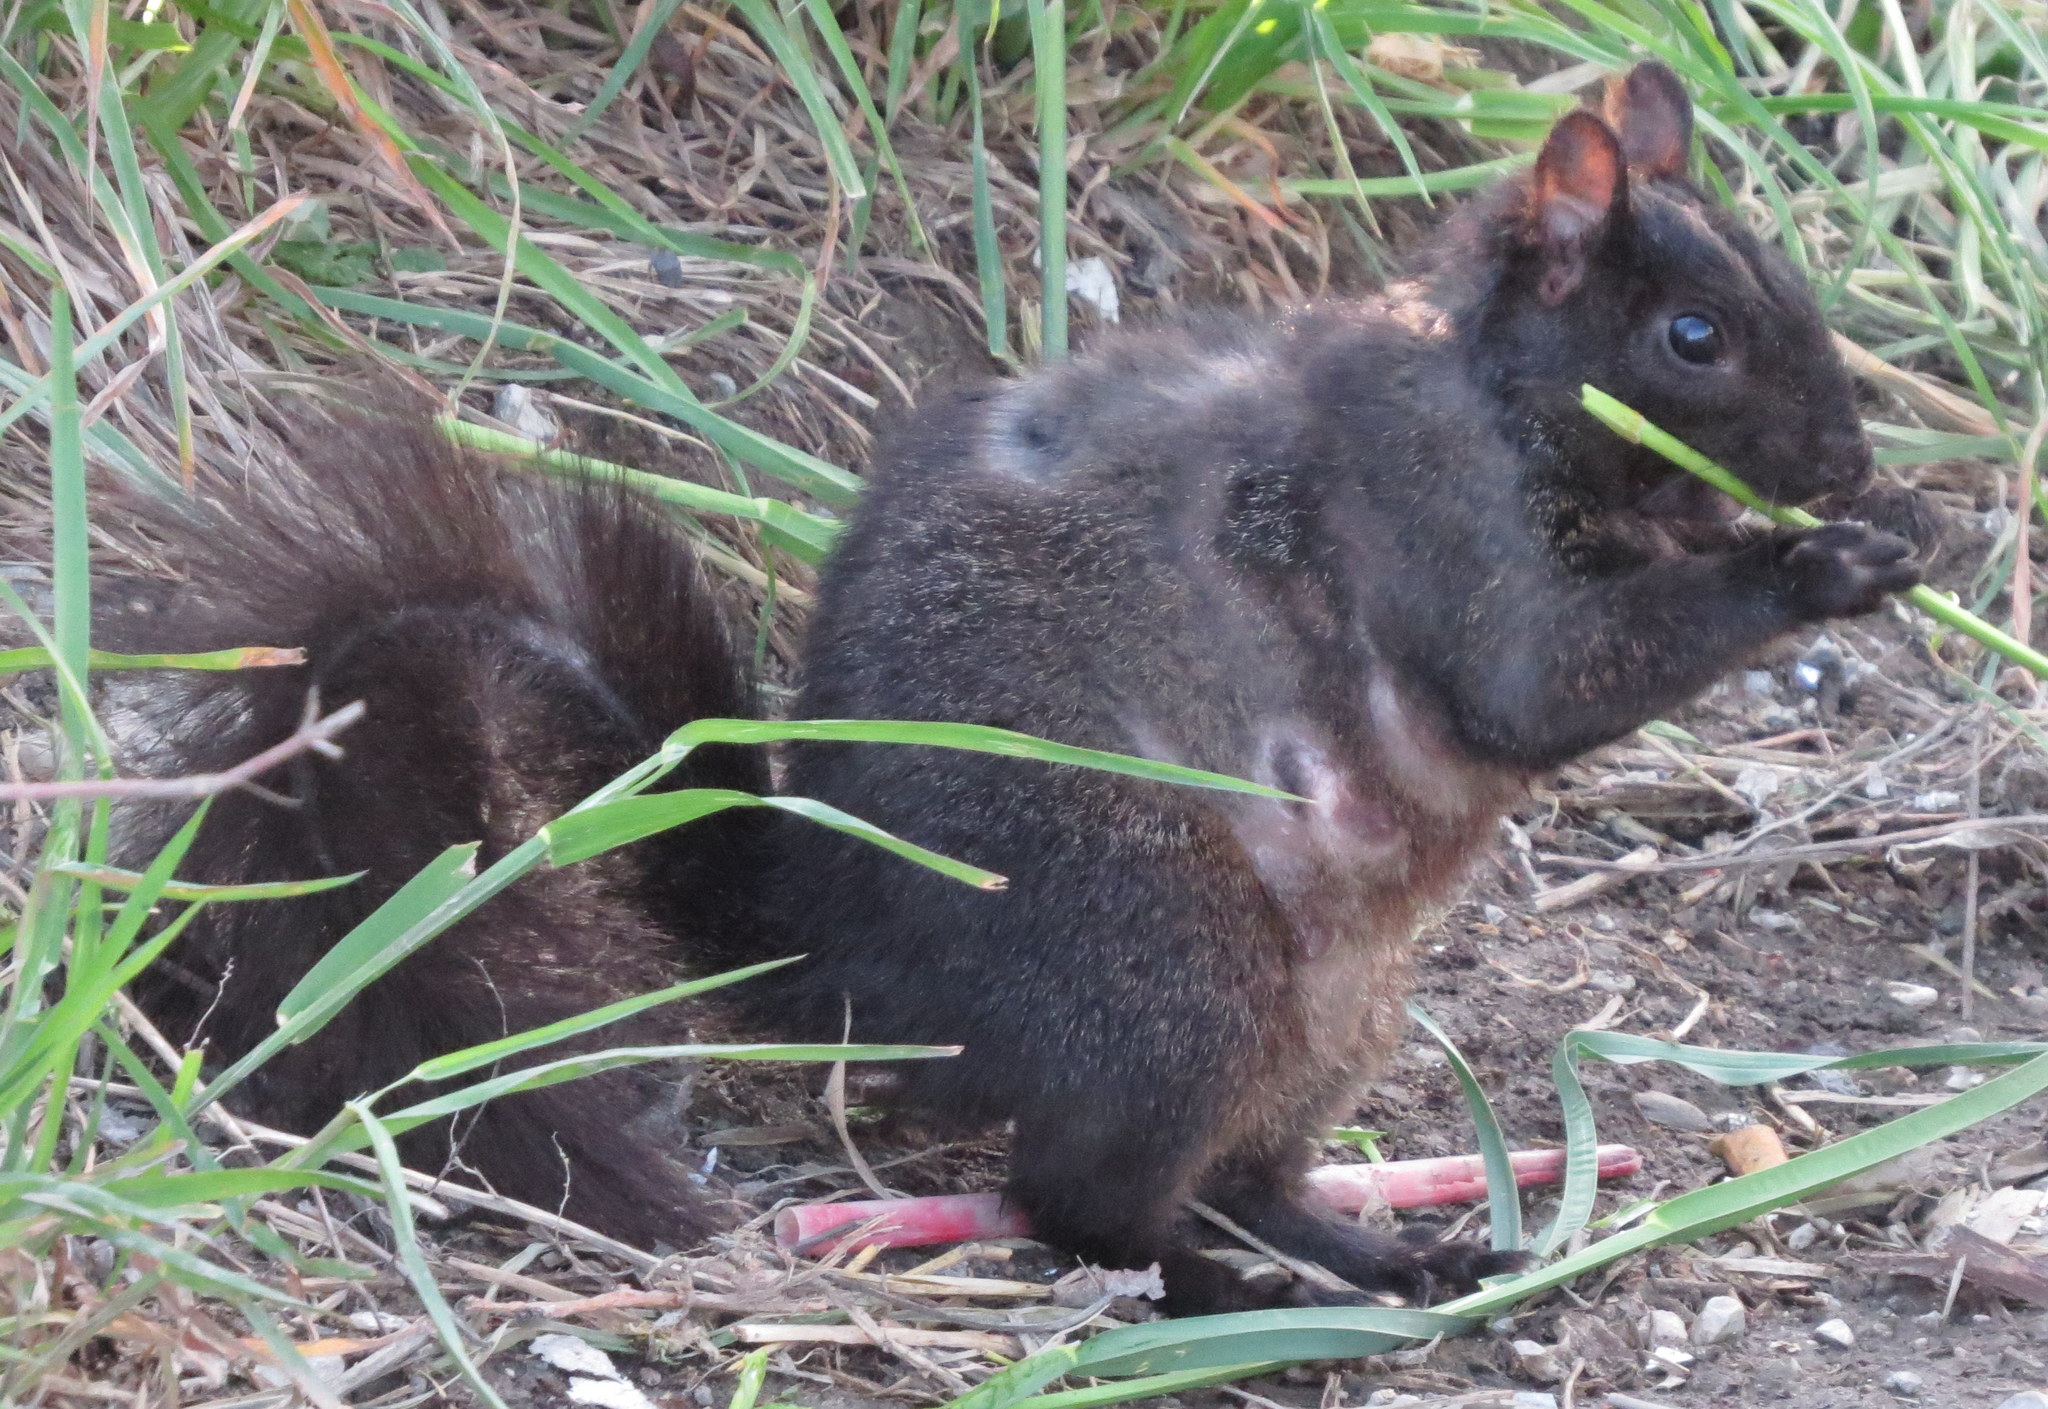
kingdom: Animalia
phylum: Chordata
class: Mammalia
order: Rodentia
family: Sciuridae
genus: Sciurus
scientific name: Sciurus carolinensis
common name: Eastern gray squirrel
